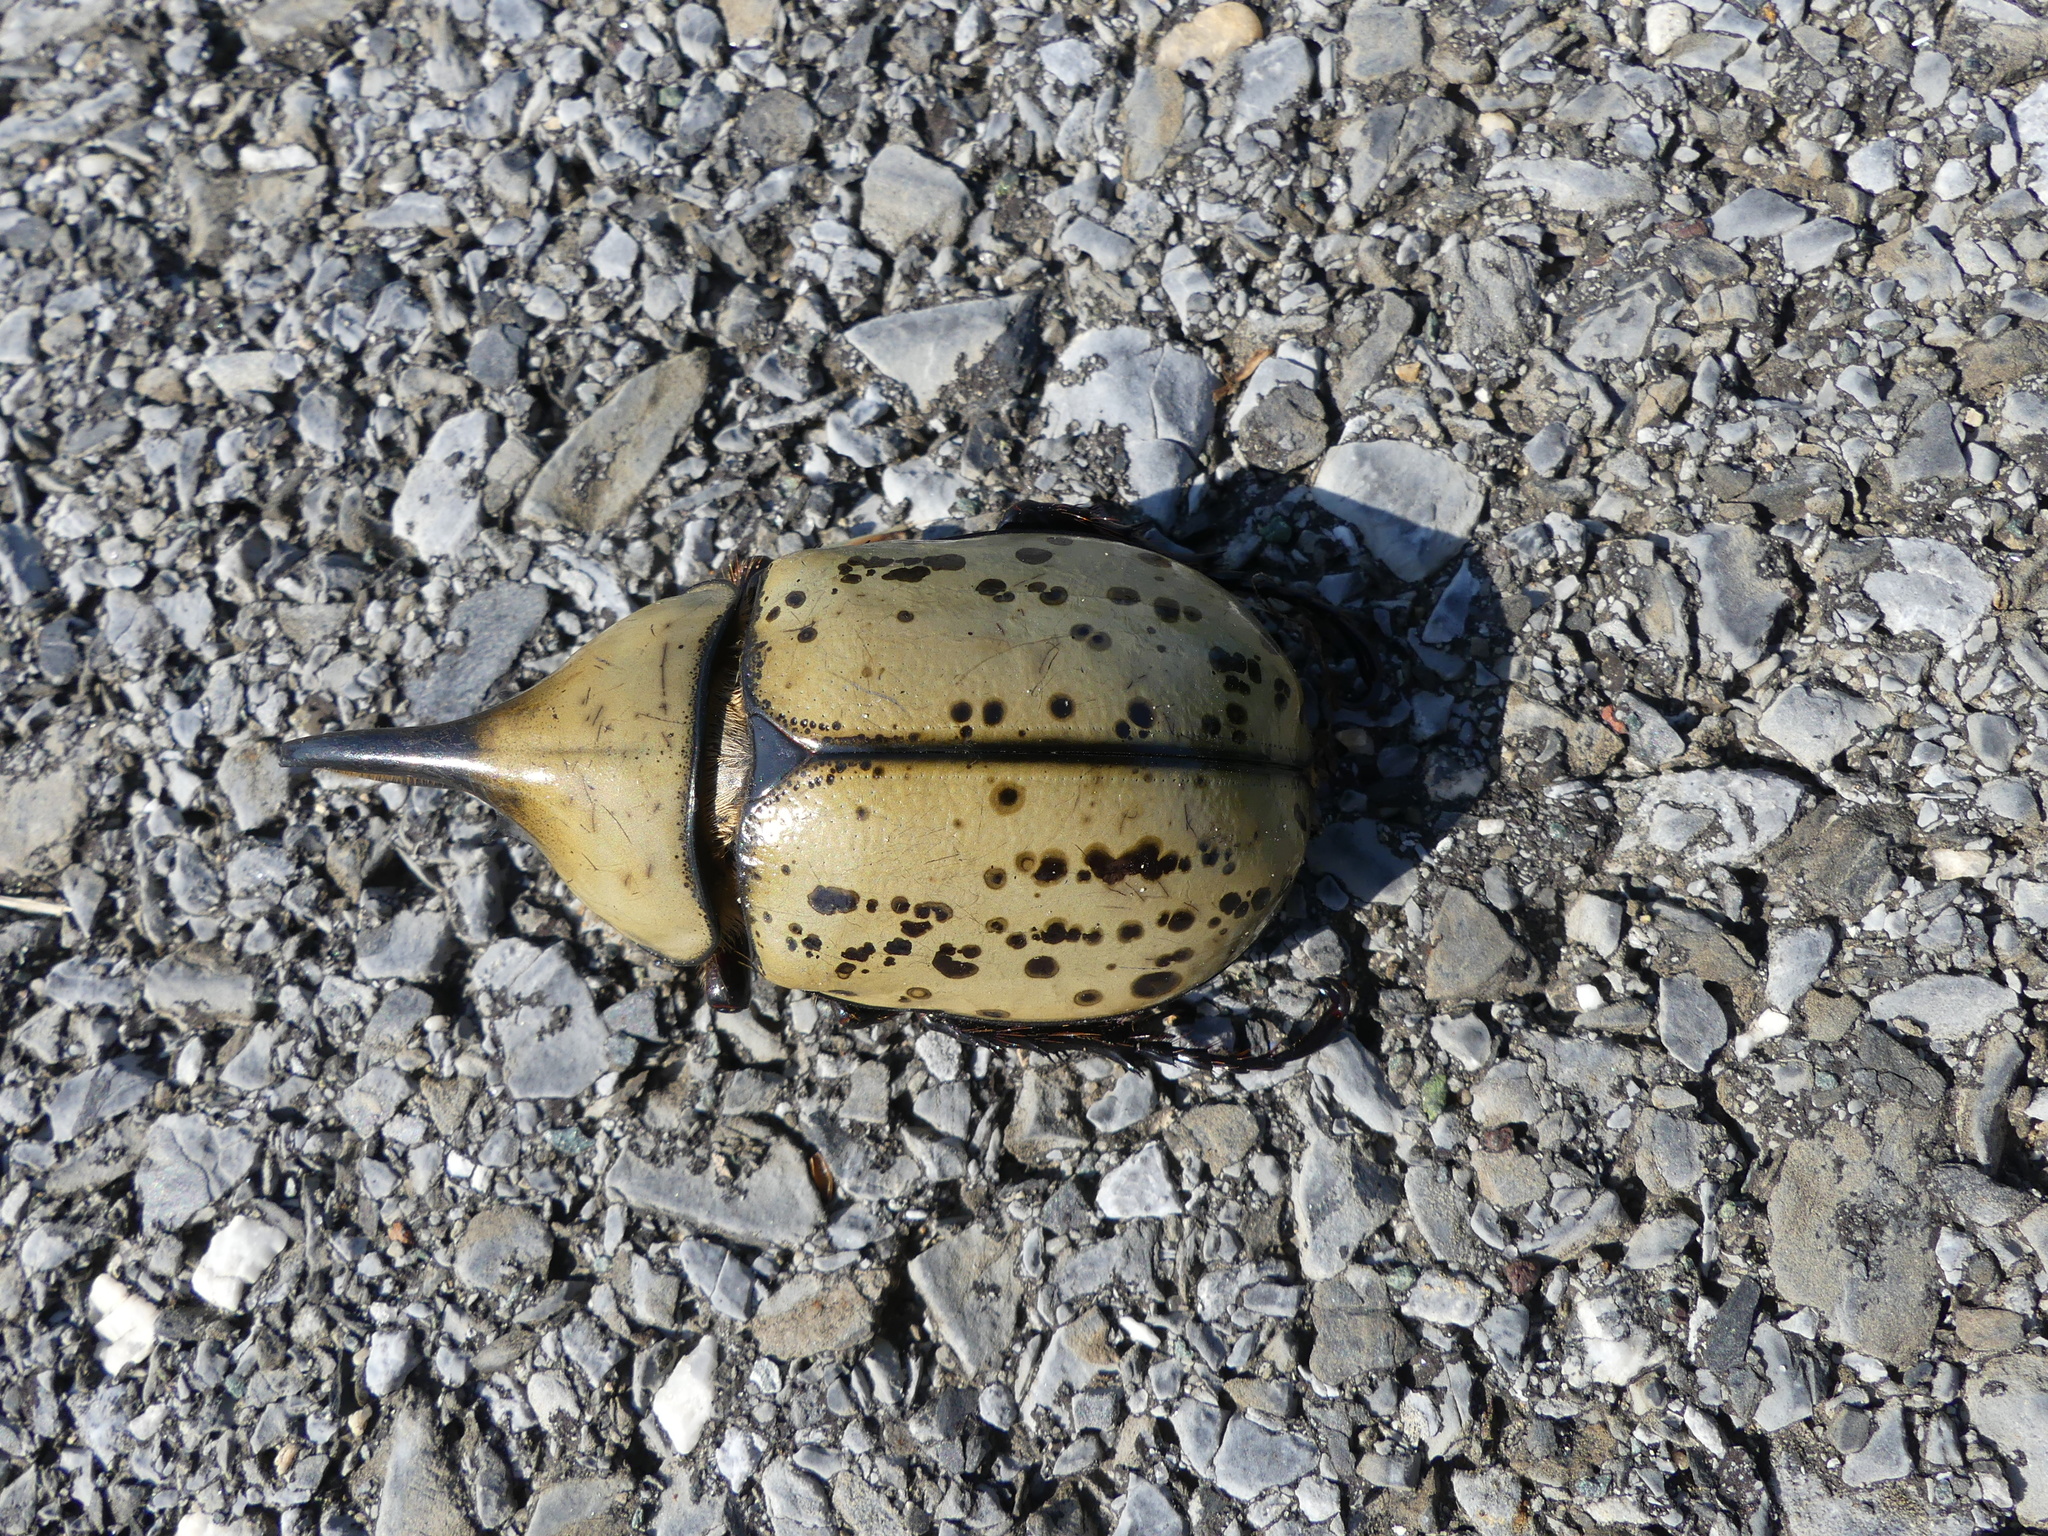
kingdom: Animalia
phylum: Arthropoda
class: Insecta
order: Coleoptera
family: Scarabaeidae
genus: Dynastes
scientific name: Dynastes tityus
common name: Eastern hercules beetle
